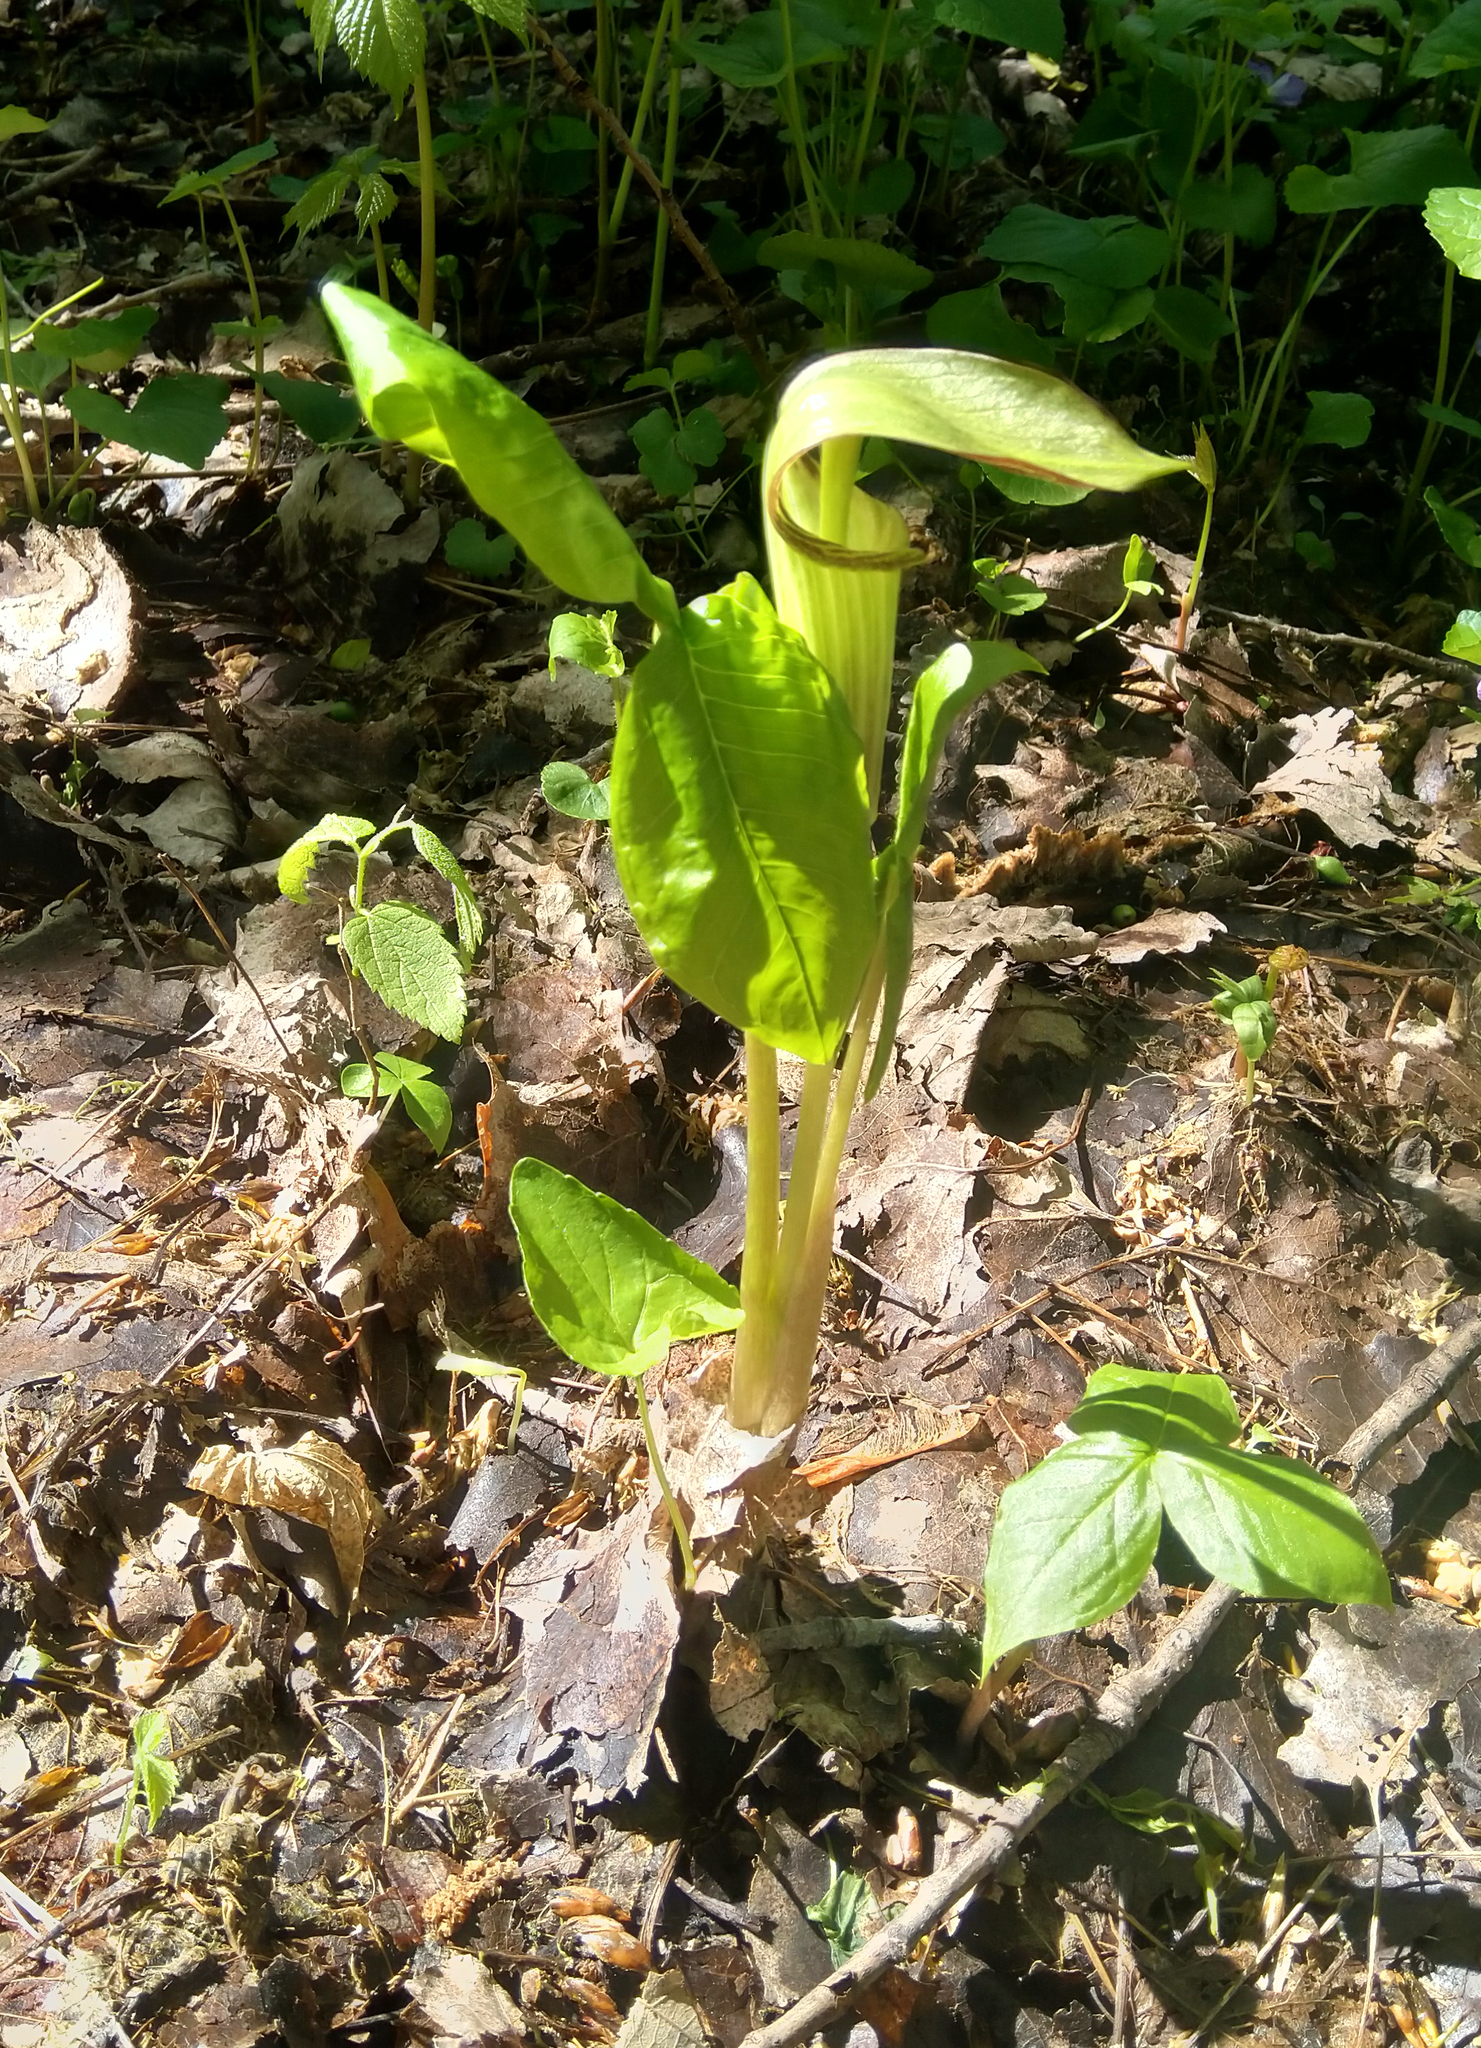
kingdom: Plantae
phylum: Tracheophyta
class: Liliopsida
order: Alismatales
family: Araceae
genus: Arisaema
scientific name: Arisaema triphyllum
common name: Jack-in-the-pulpit
